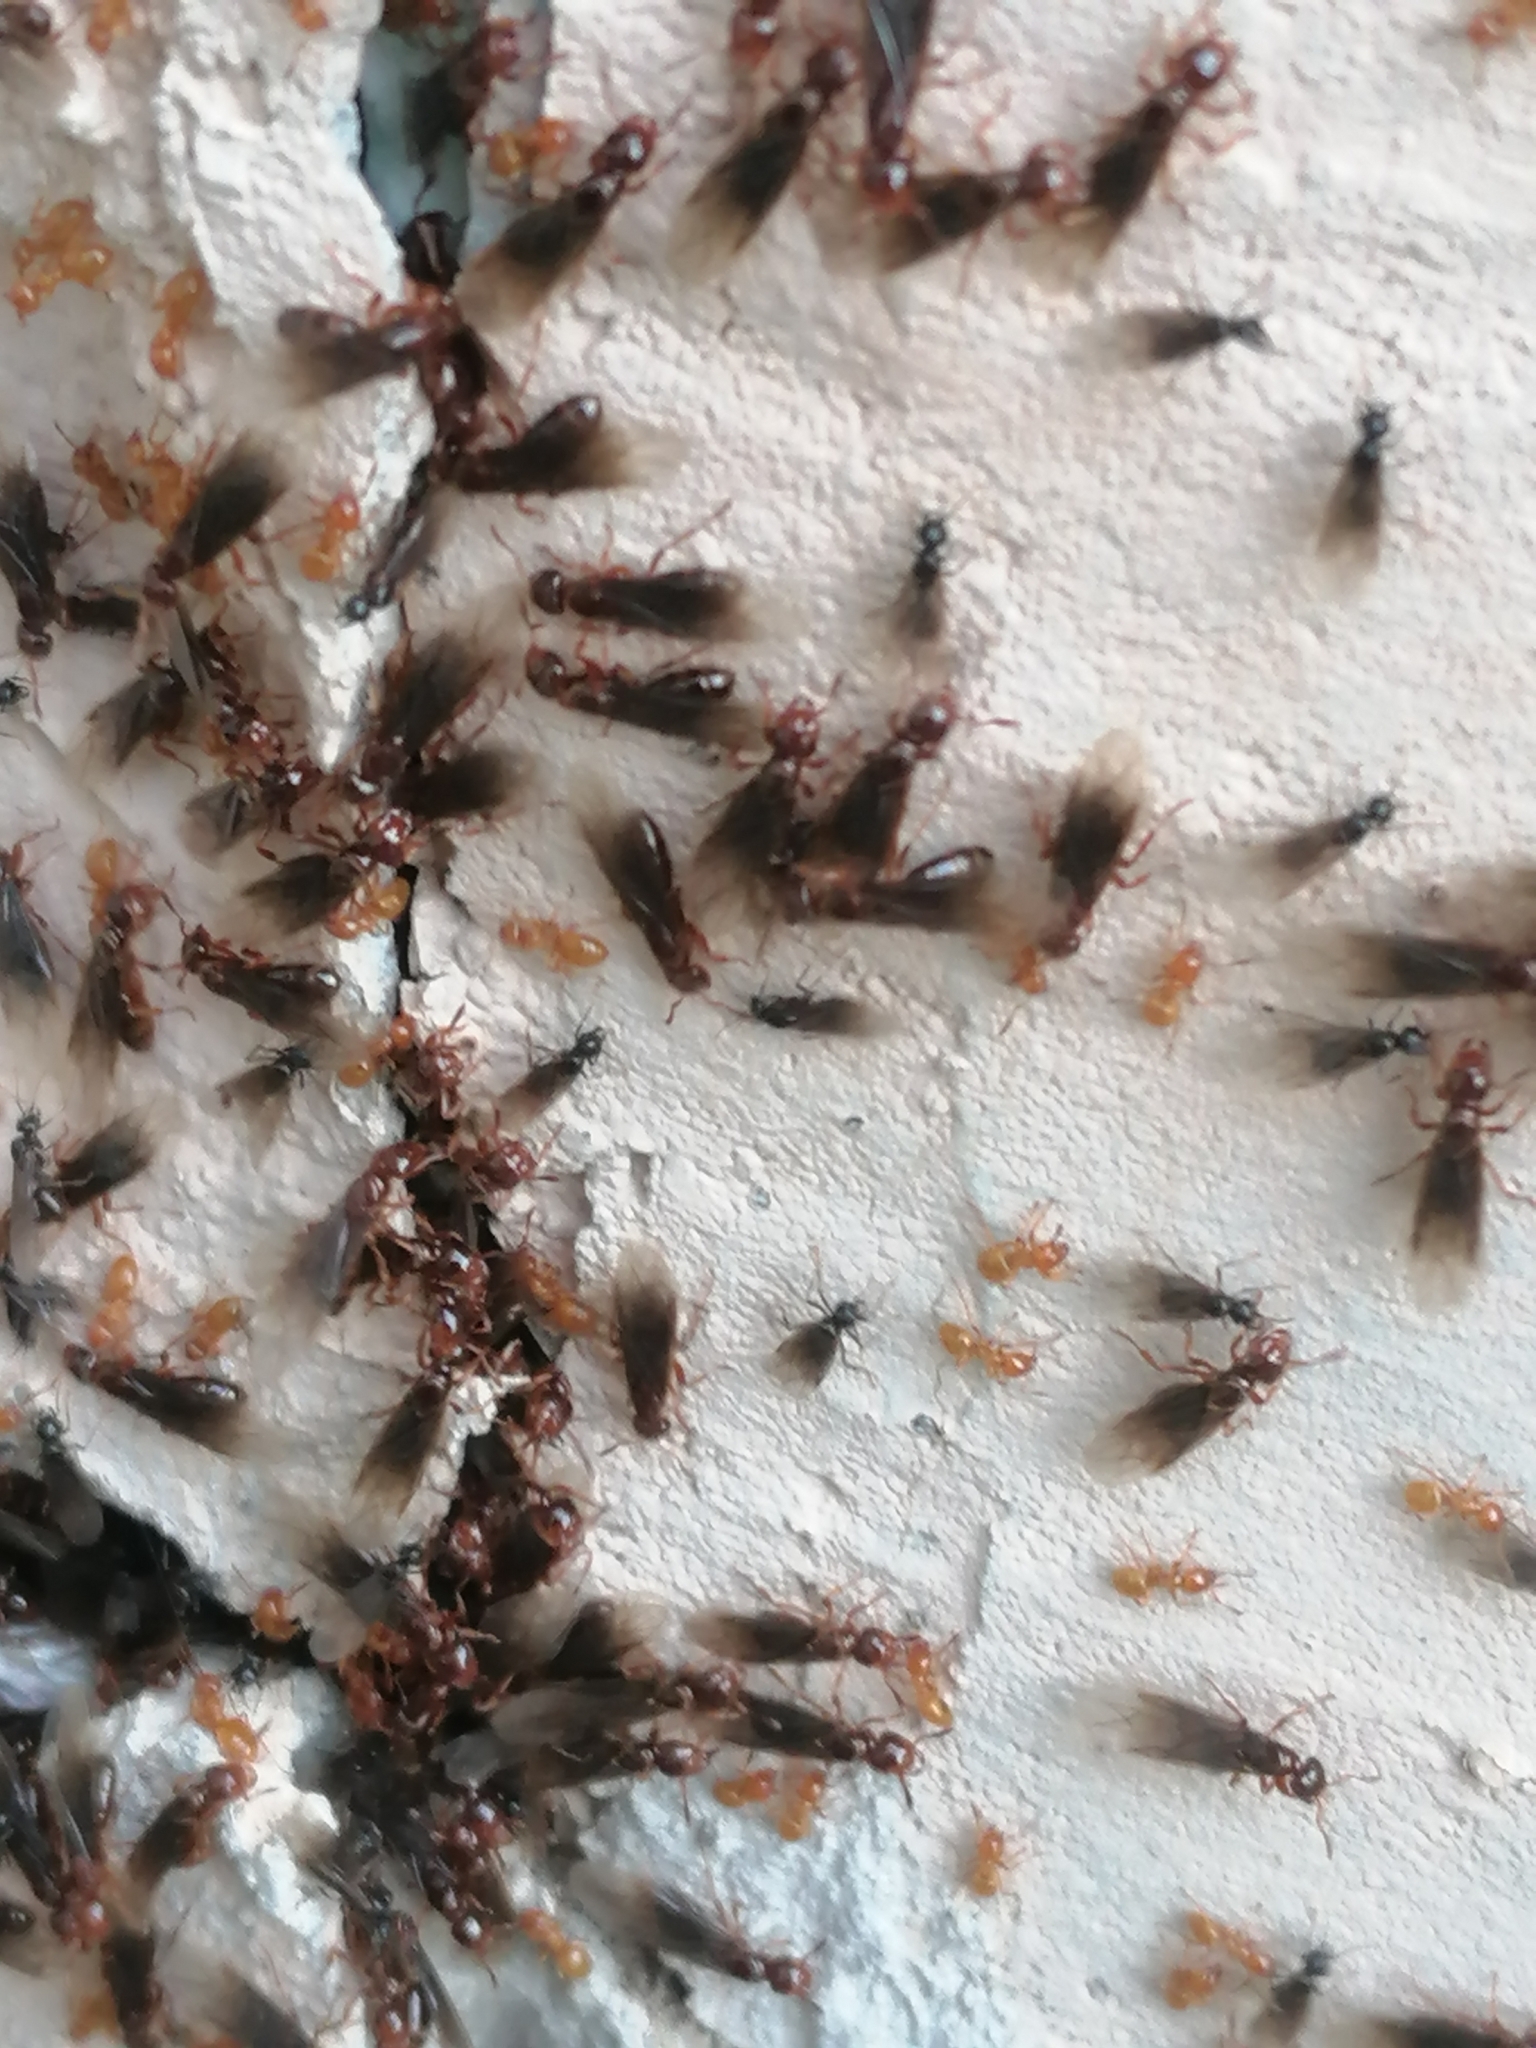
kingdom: Animalia
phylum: Arthropoda
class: Insecta
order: Hymenoptera
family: Formicidae
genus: Lasius
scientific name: Lasius claviger
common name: Common citronella ant
